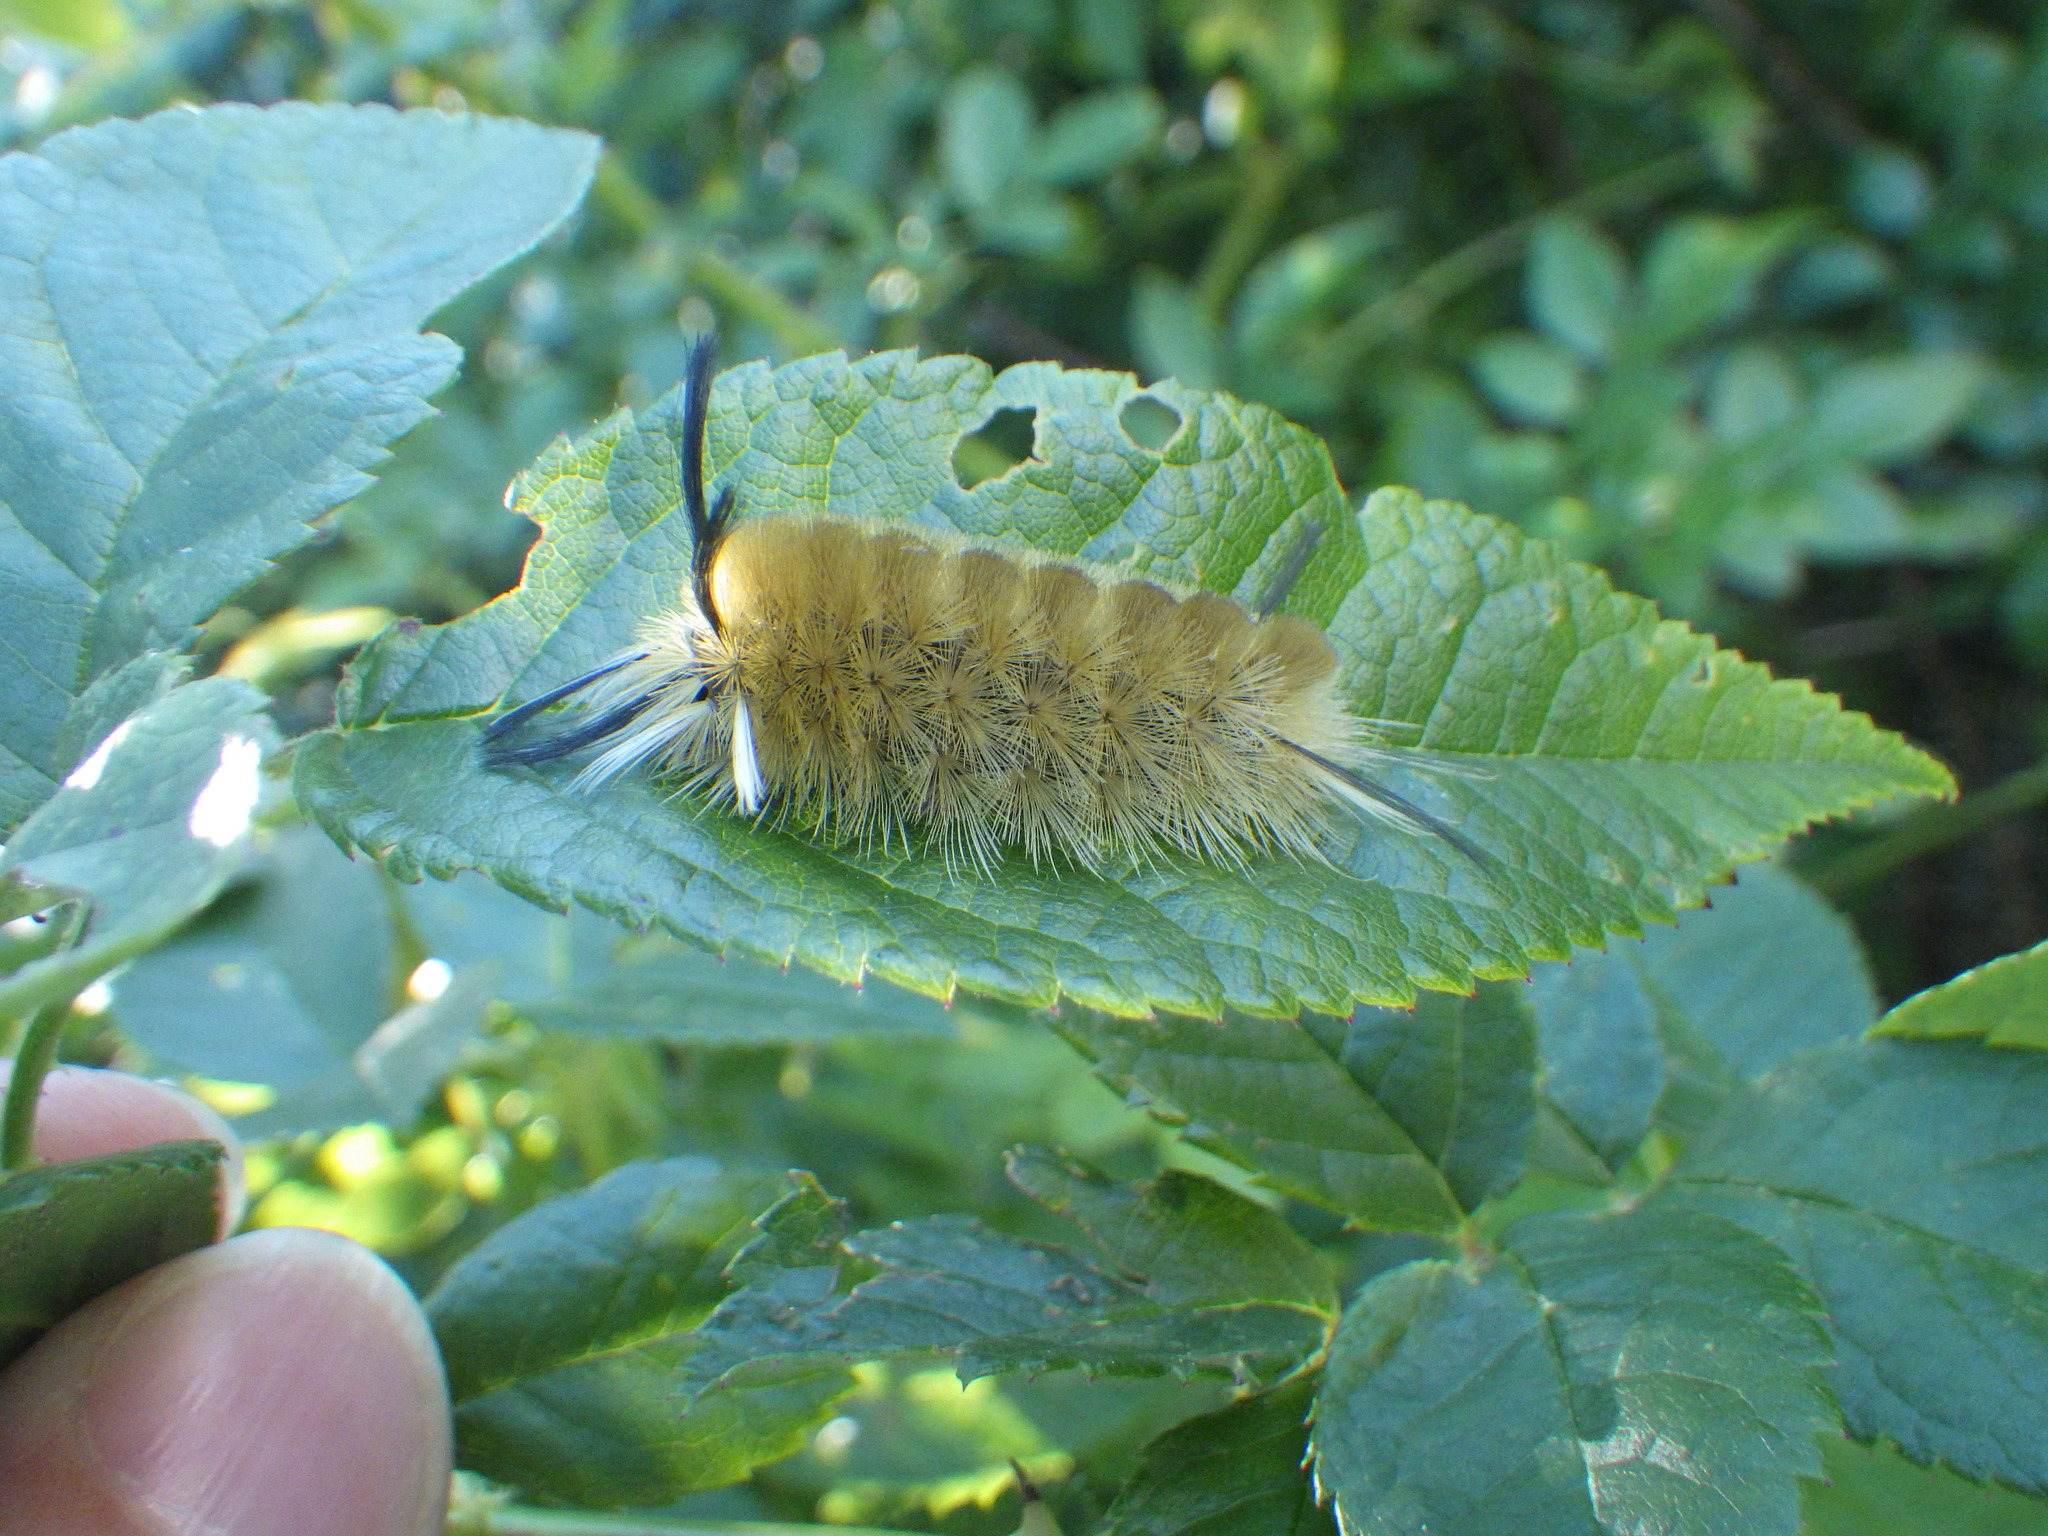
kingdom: Animalia
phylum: Arthropoda
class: Insecta
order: Lepidoptera
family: Erebidae
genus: Halysidota
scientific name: Halysidota tessellaris
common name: Banded tussock moth
